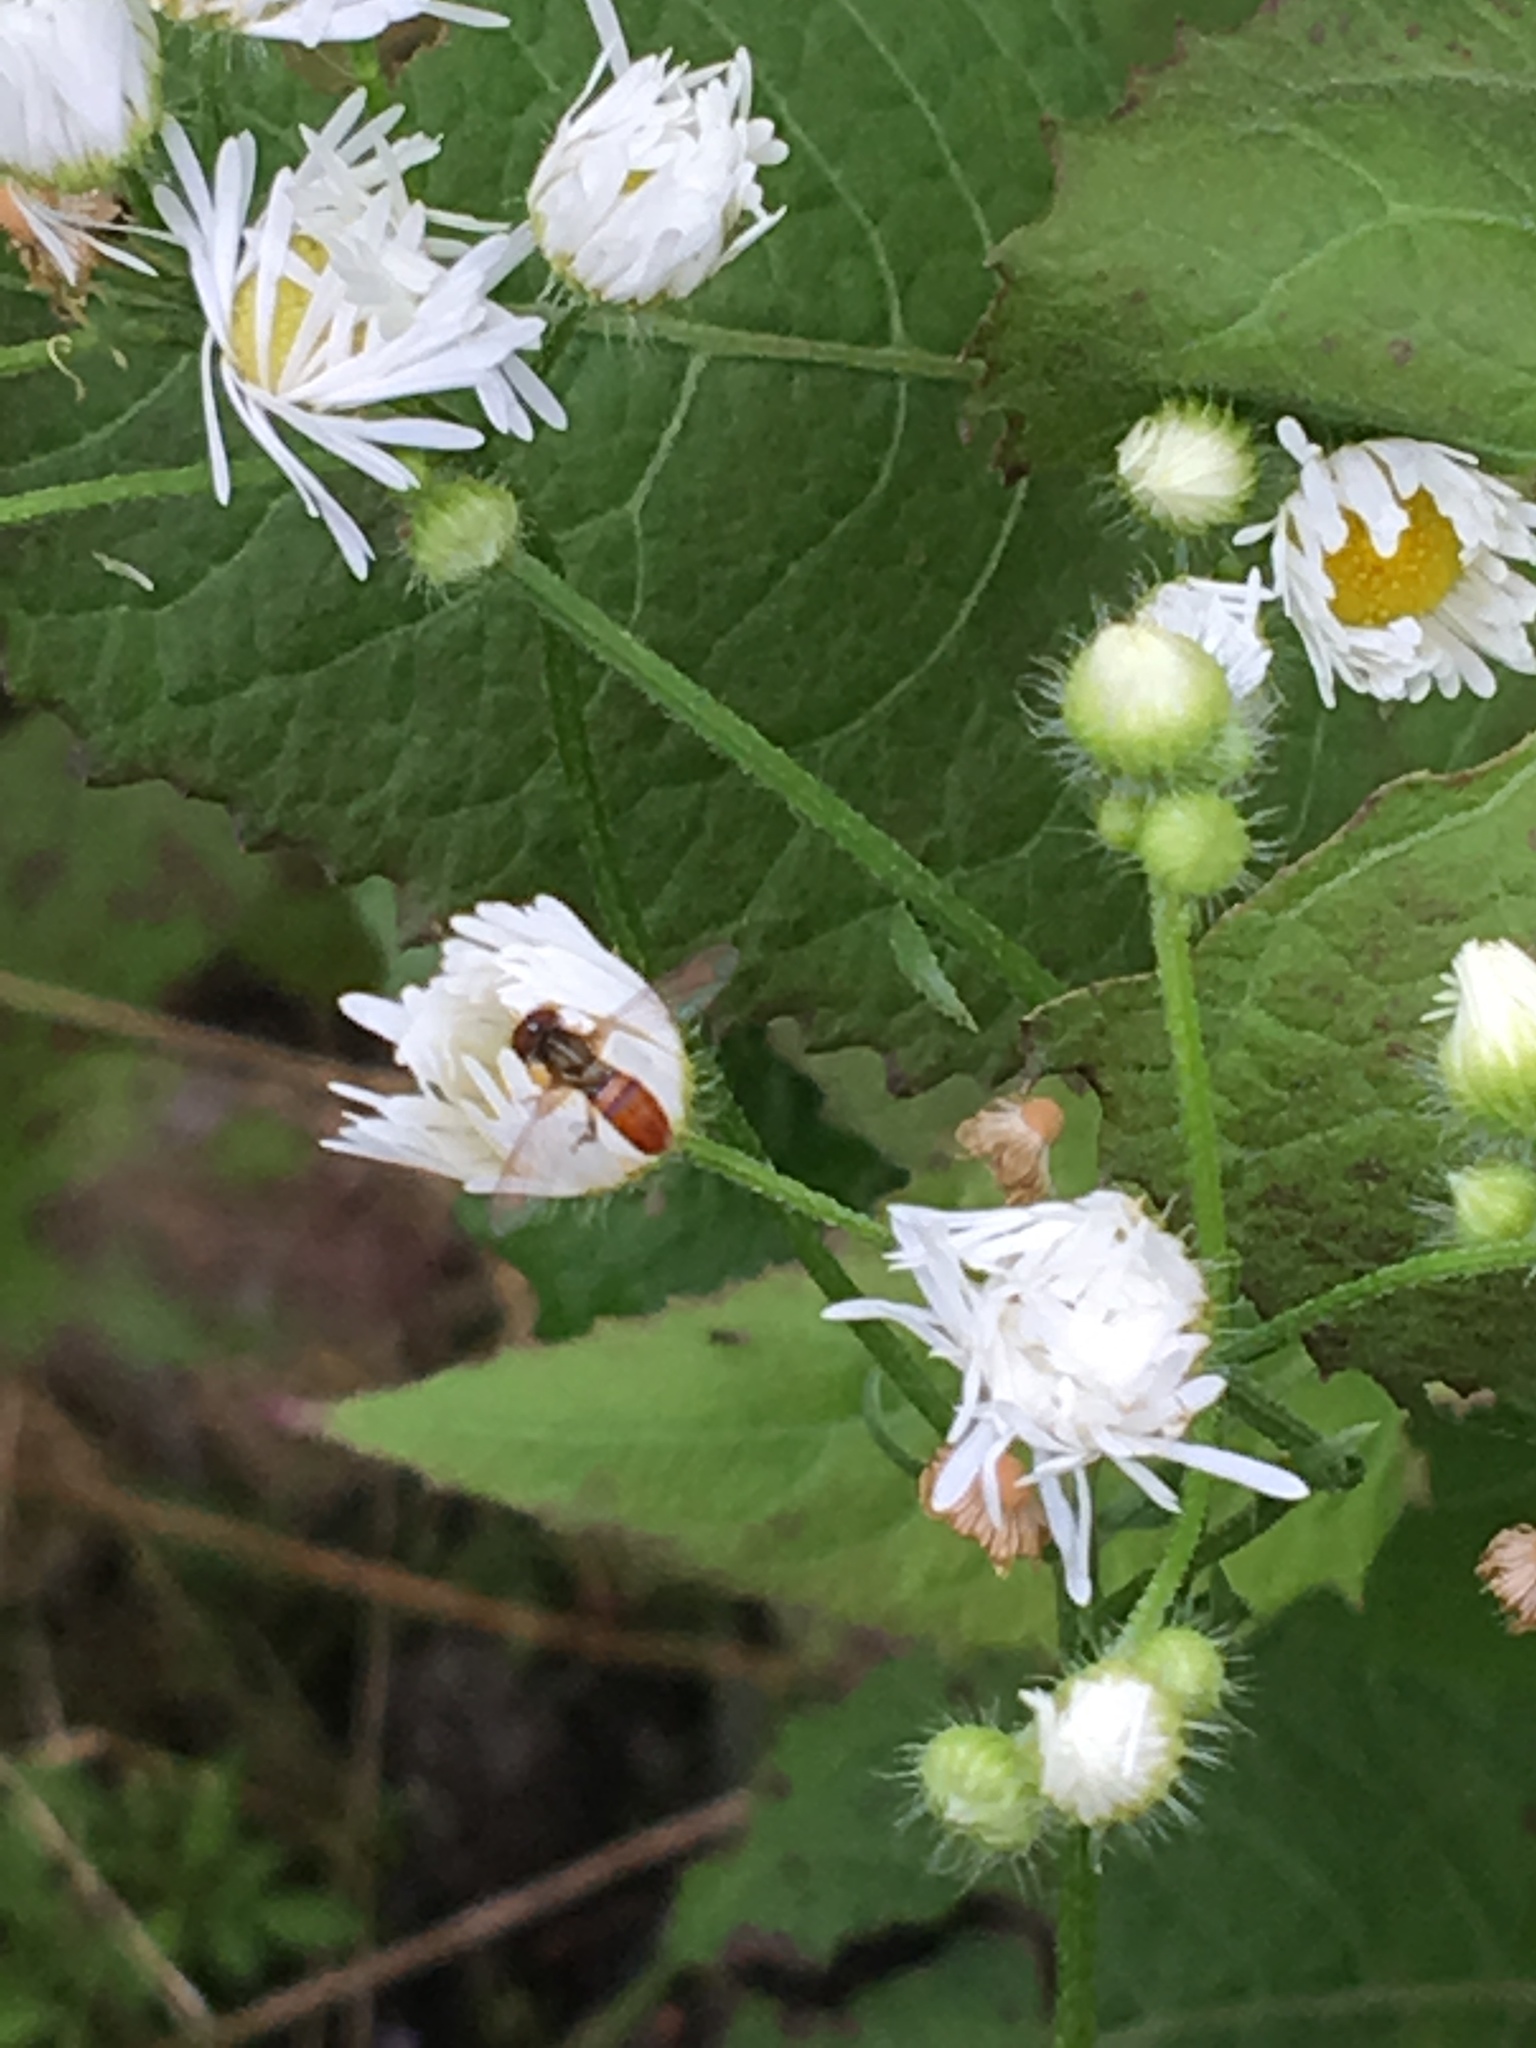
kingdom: Animalia
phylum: Arthropoda
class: Insecta
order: Diptera
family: Syrphidae
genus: Toxomerus
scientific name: Toxomerus boscii
